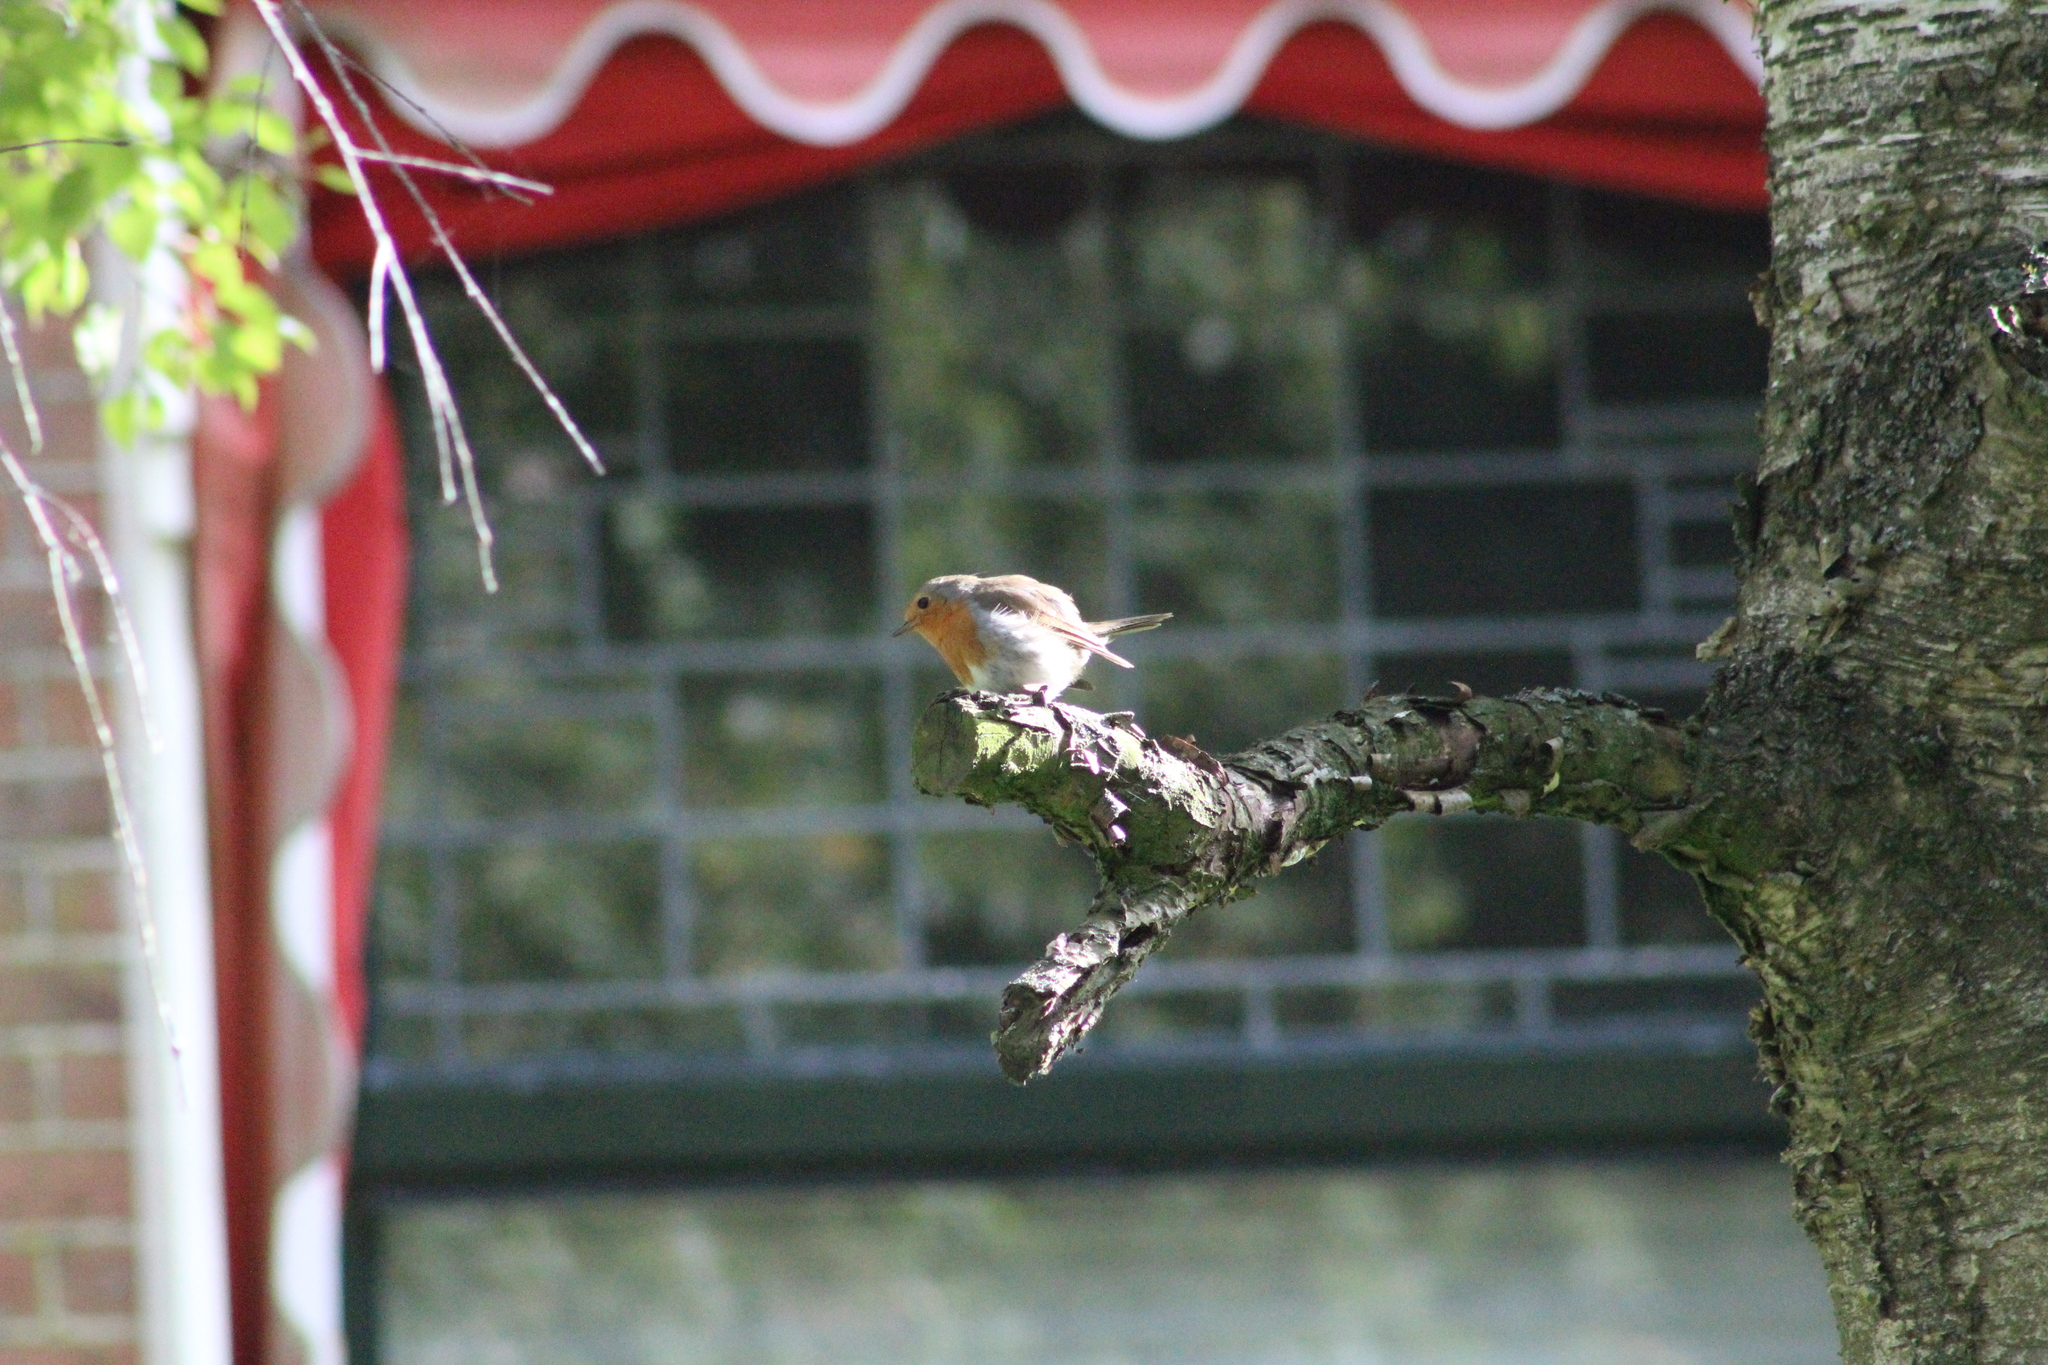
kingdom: Animalia
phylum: Chordata
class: Aves
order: Passeriformes
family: Muscicapidae
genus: Erithacus
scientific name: Erithacus rubecula
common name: European robin
